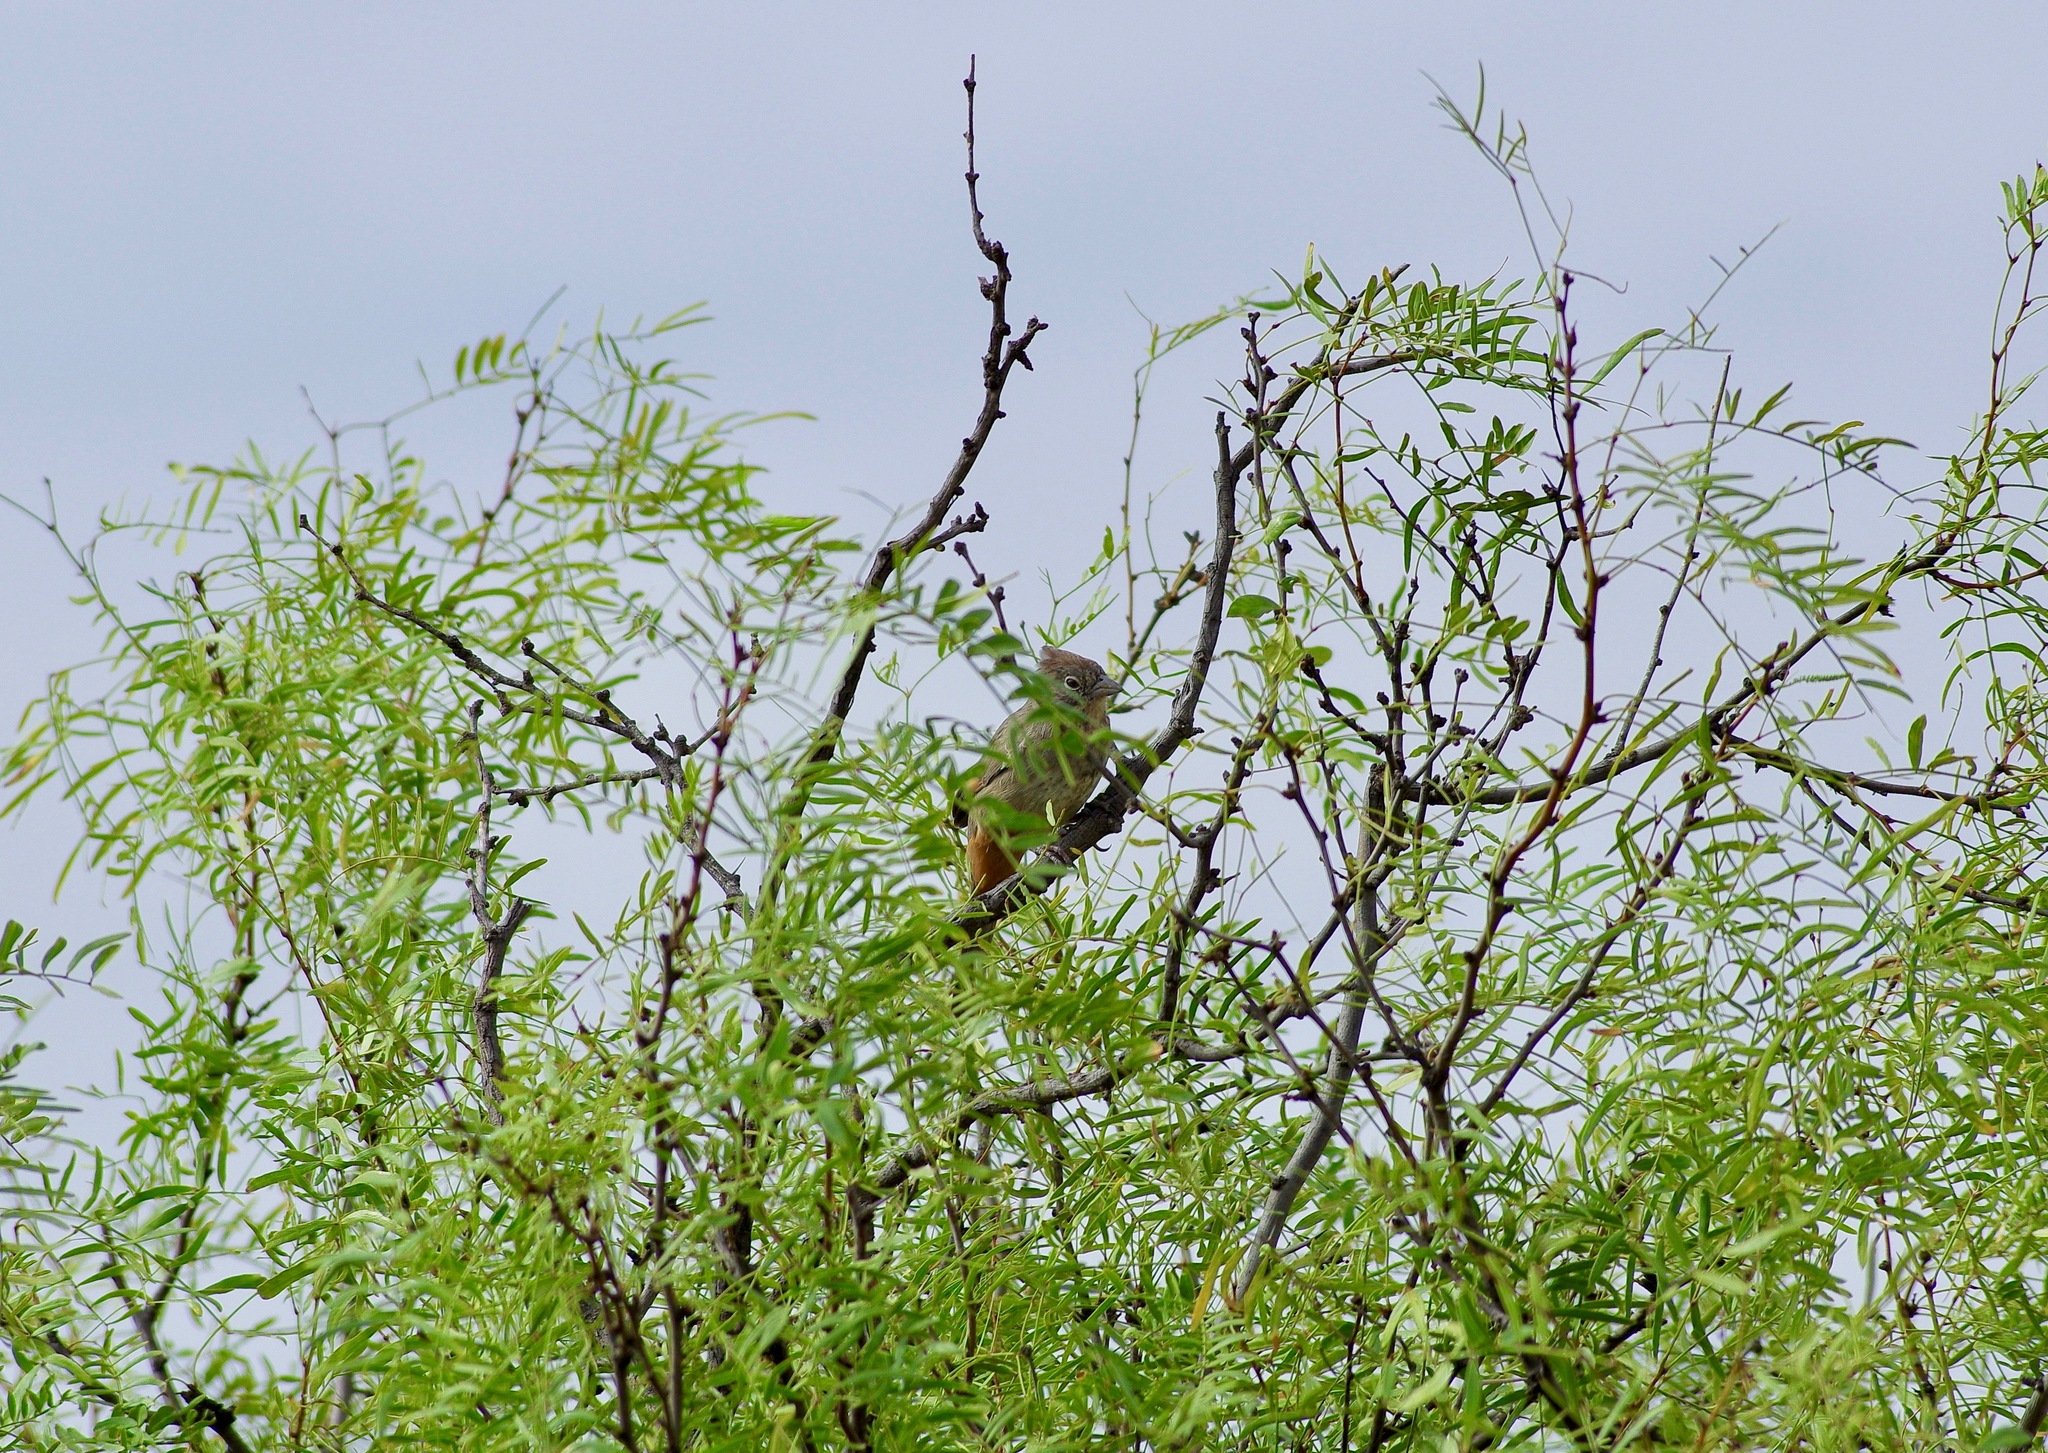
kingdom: Animalia
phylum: Chordata
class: Aves
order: Passeriformes
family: Passerellidae
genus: Melozone
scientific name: Melozone fusca
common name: Canyon towhee
